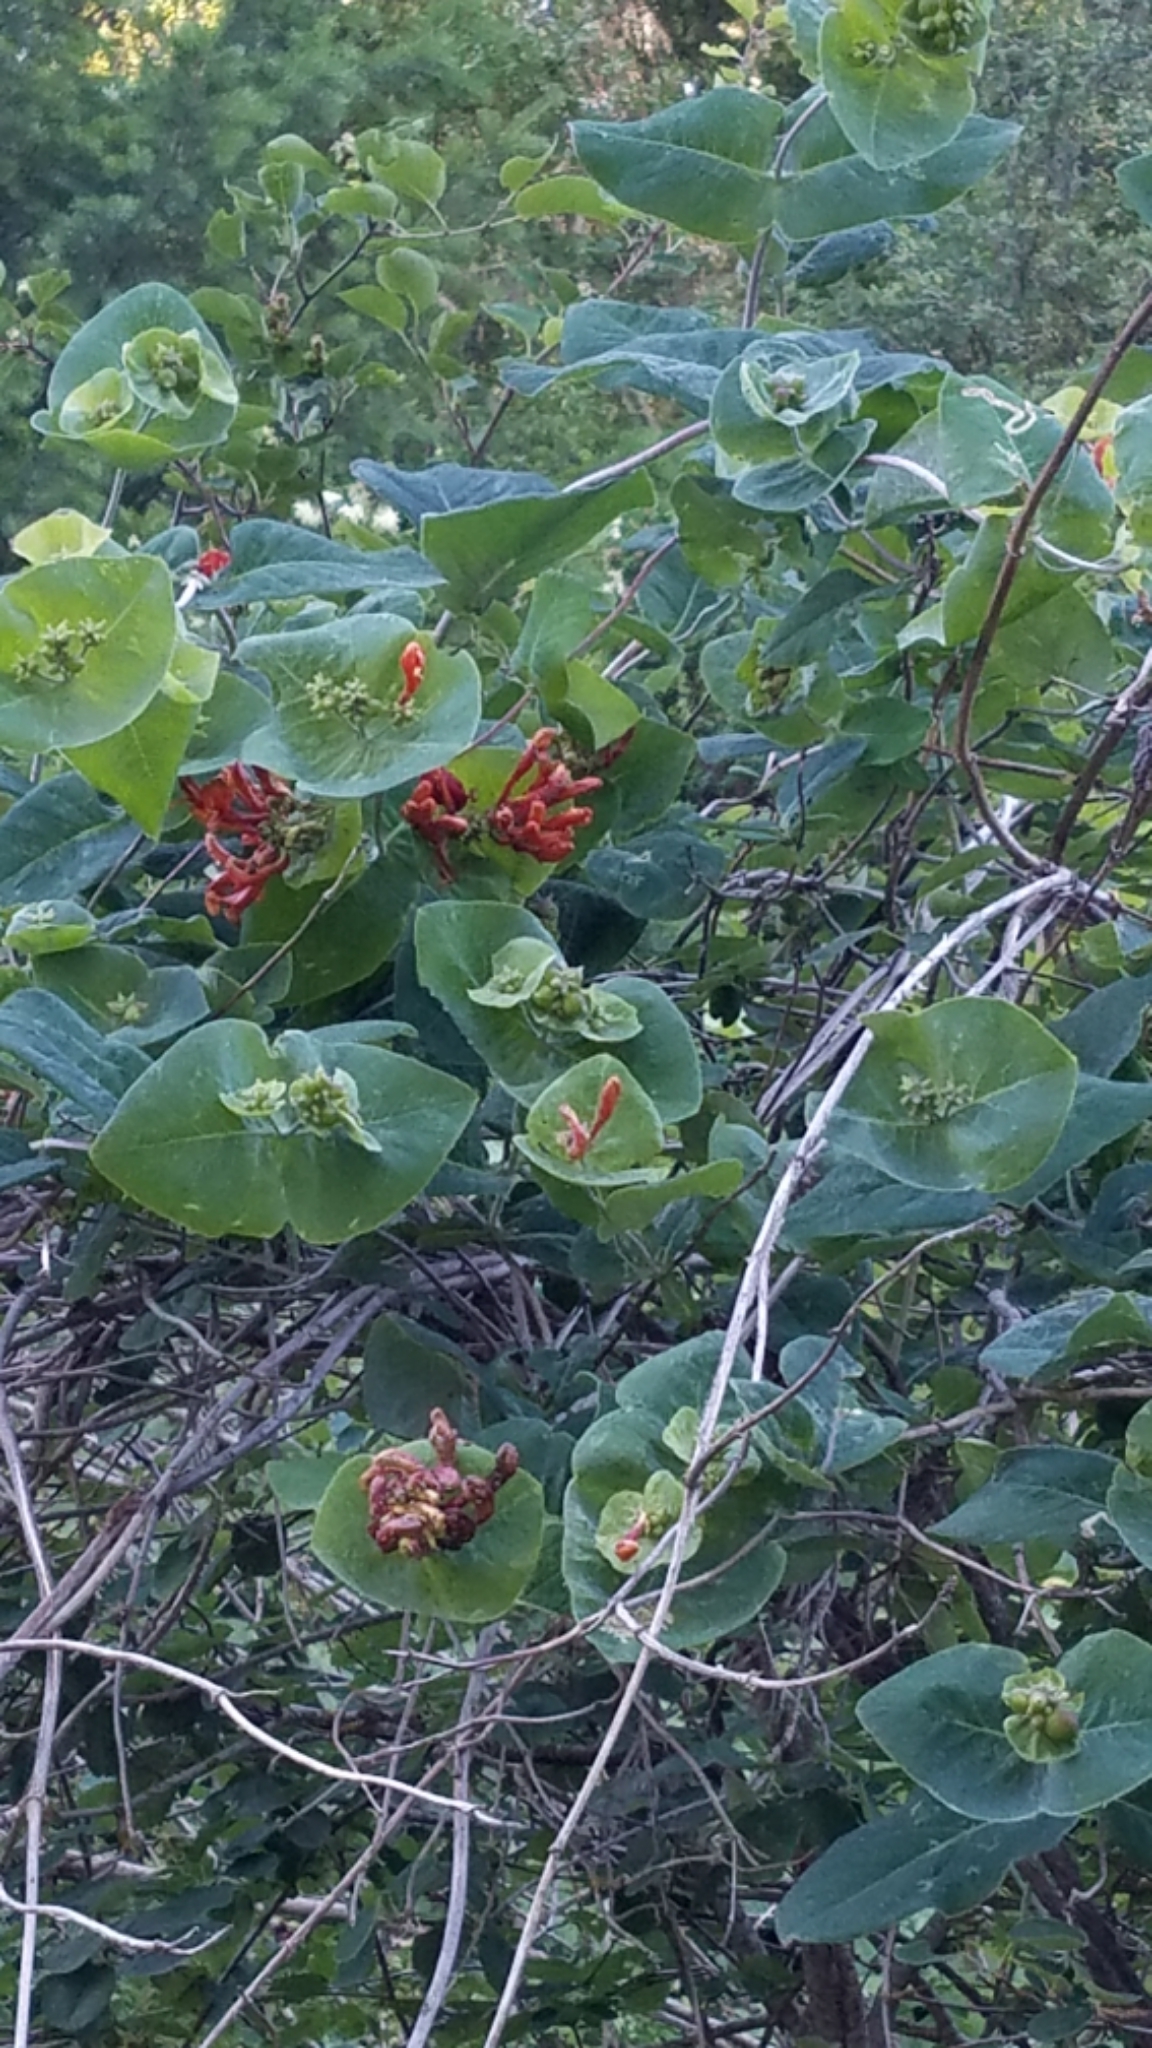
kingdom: Plantae
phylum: Tracheophyta
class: Magnoliopsida
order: Dipsacales
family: Caprifoliaceae
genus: Lonicera
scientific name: Lonicera ciliosa
